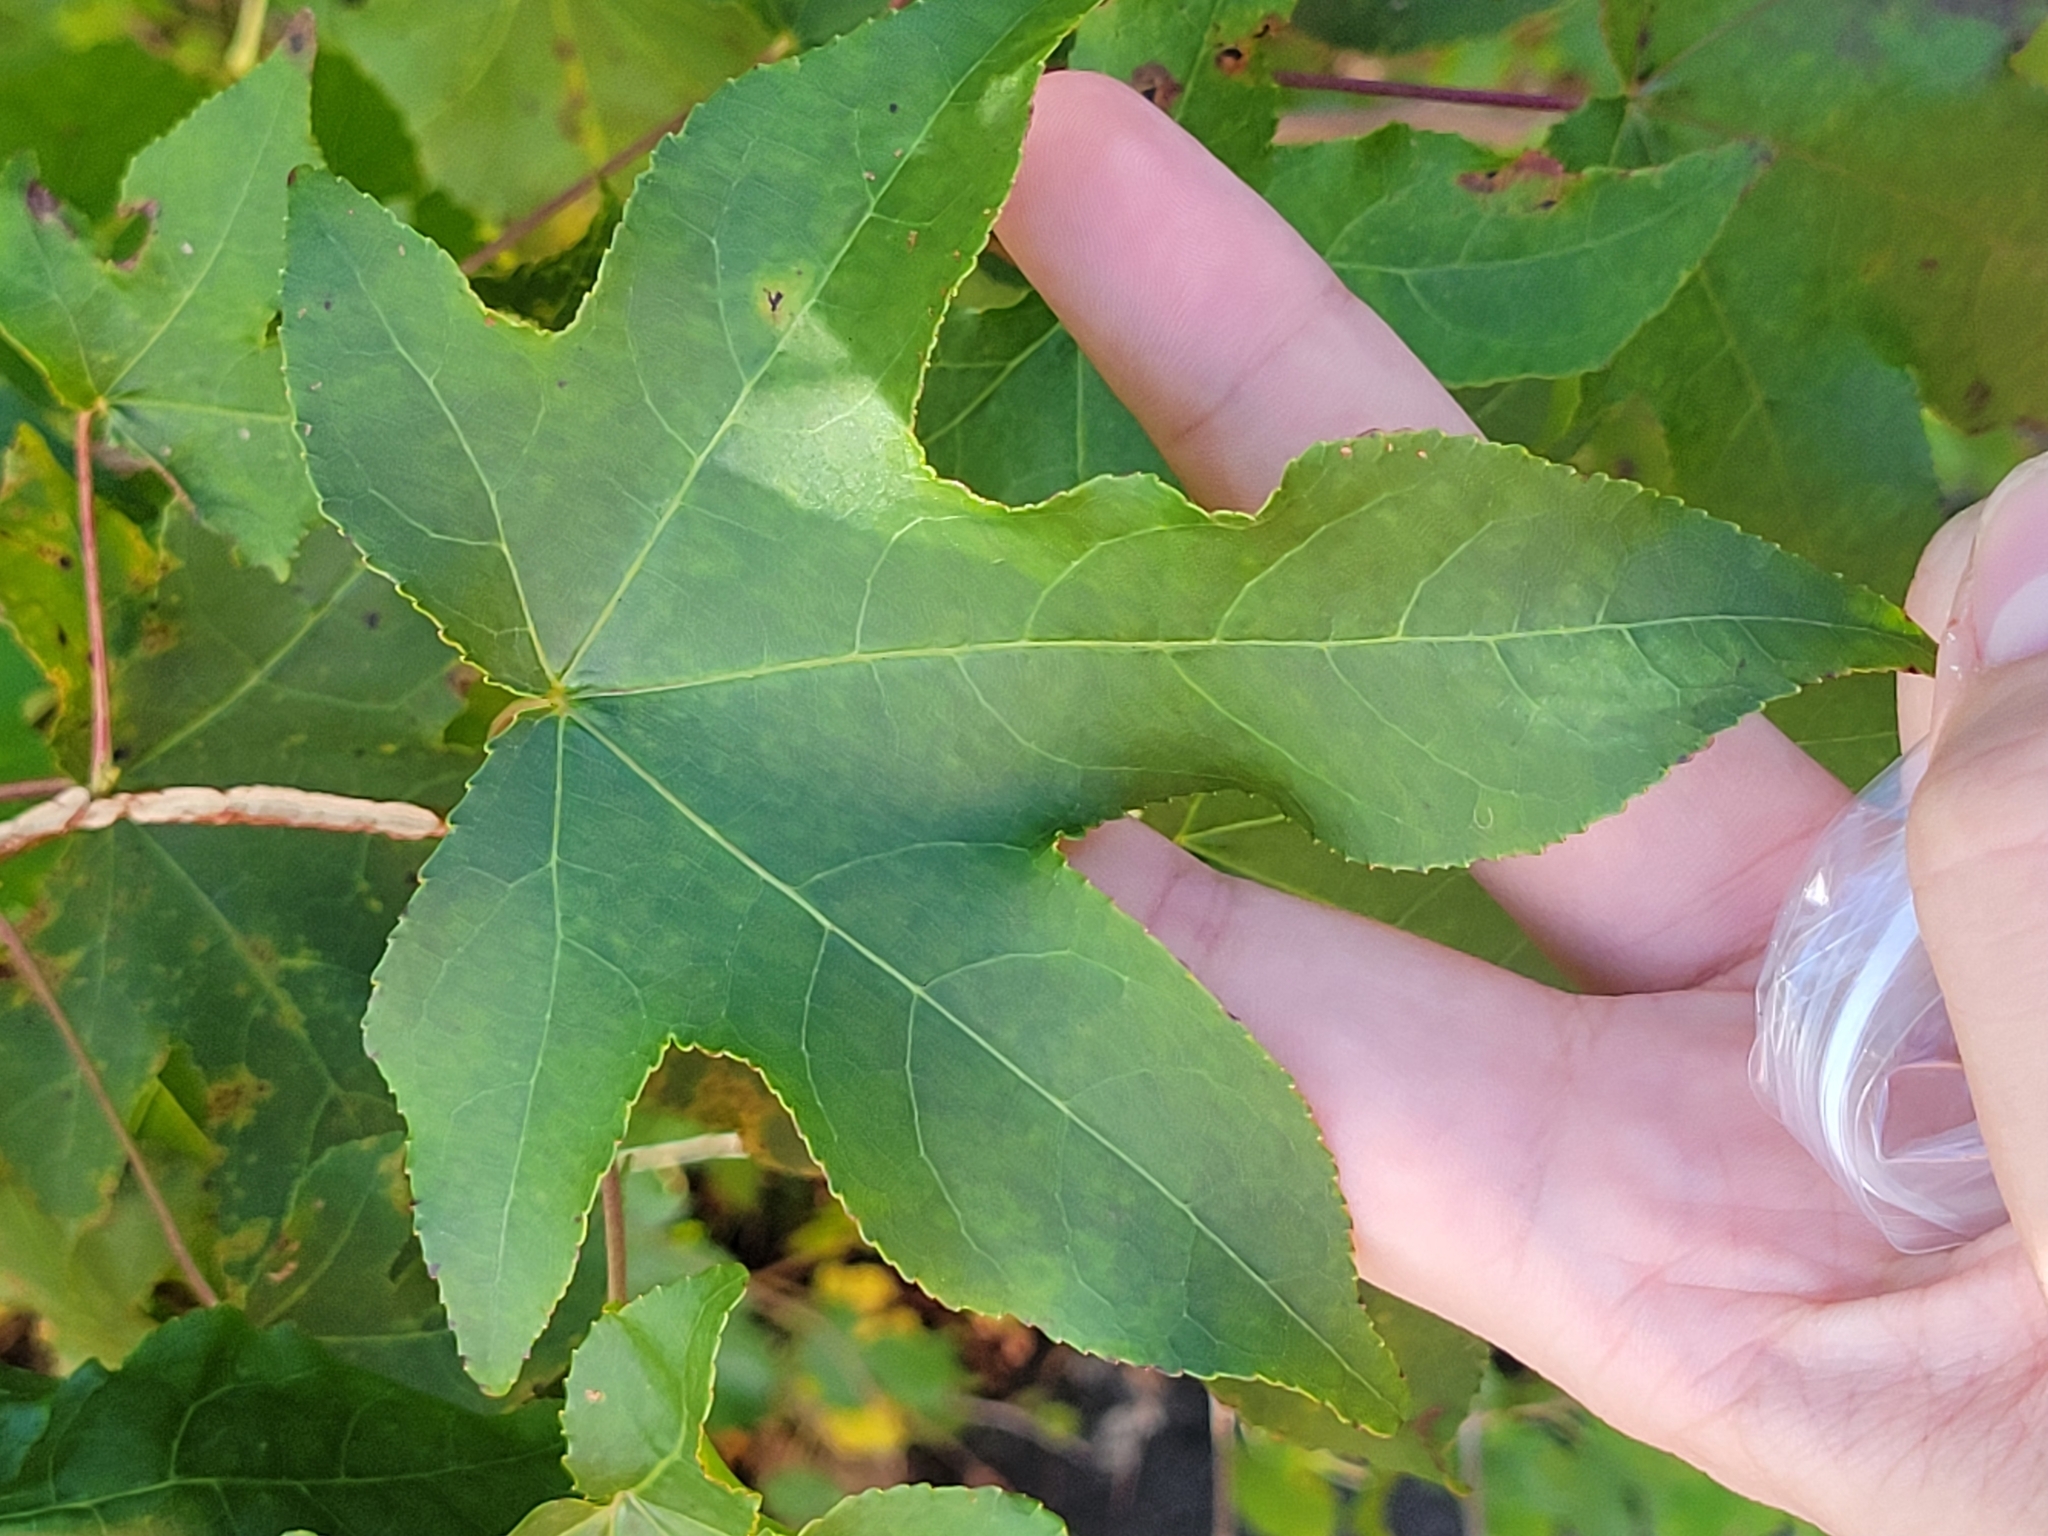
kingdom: Plantae
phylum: Tracheophyta
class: Magnoliopsida
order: Saxifragales
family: Altingiaceae
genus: Liquidambar
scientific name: Liquidambar styraciflua
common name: Sweet gum
